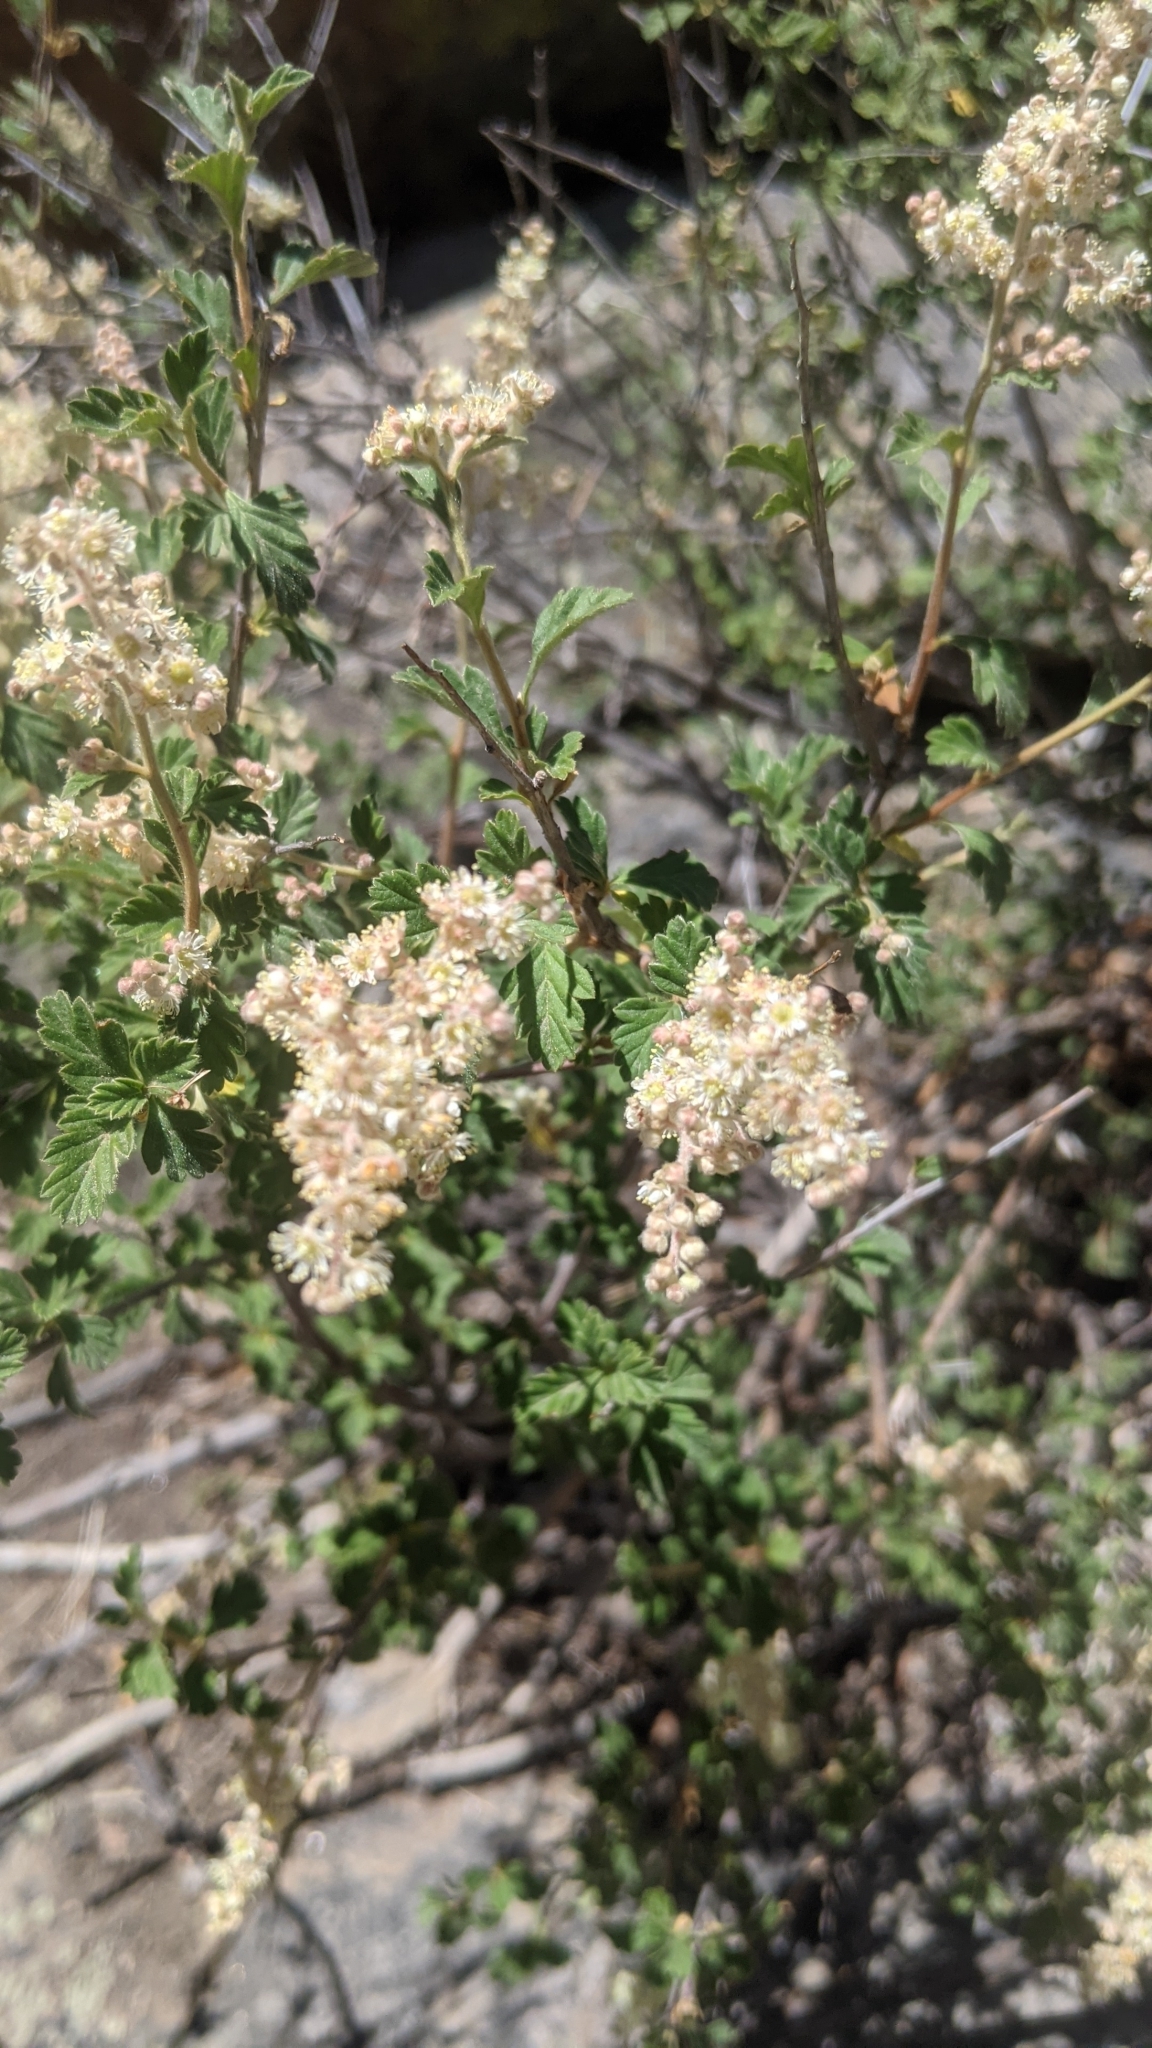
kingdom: Plantae
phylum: Tracheophyta
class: Magnoliopsida
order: Rosales
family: Rosaceae
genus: Holodiscus
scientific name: Holodiscus discolor
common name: Oceanspray
